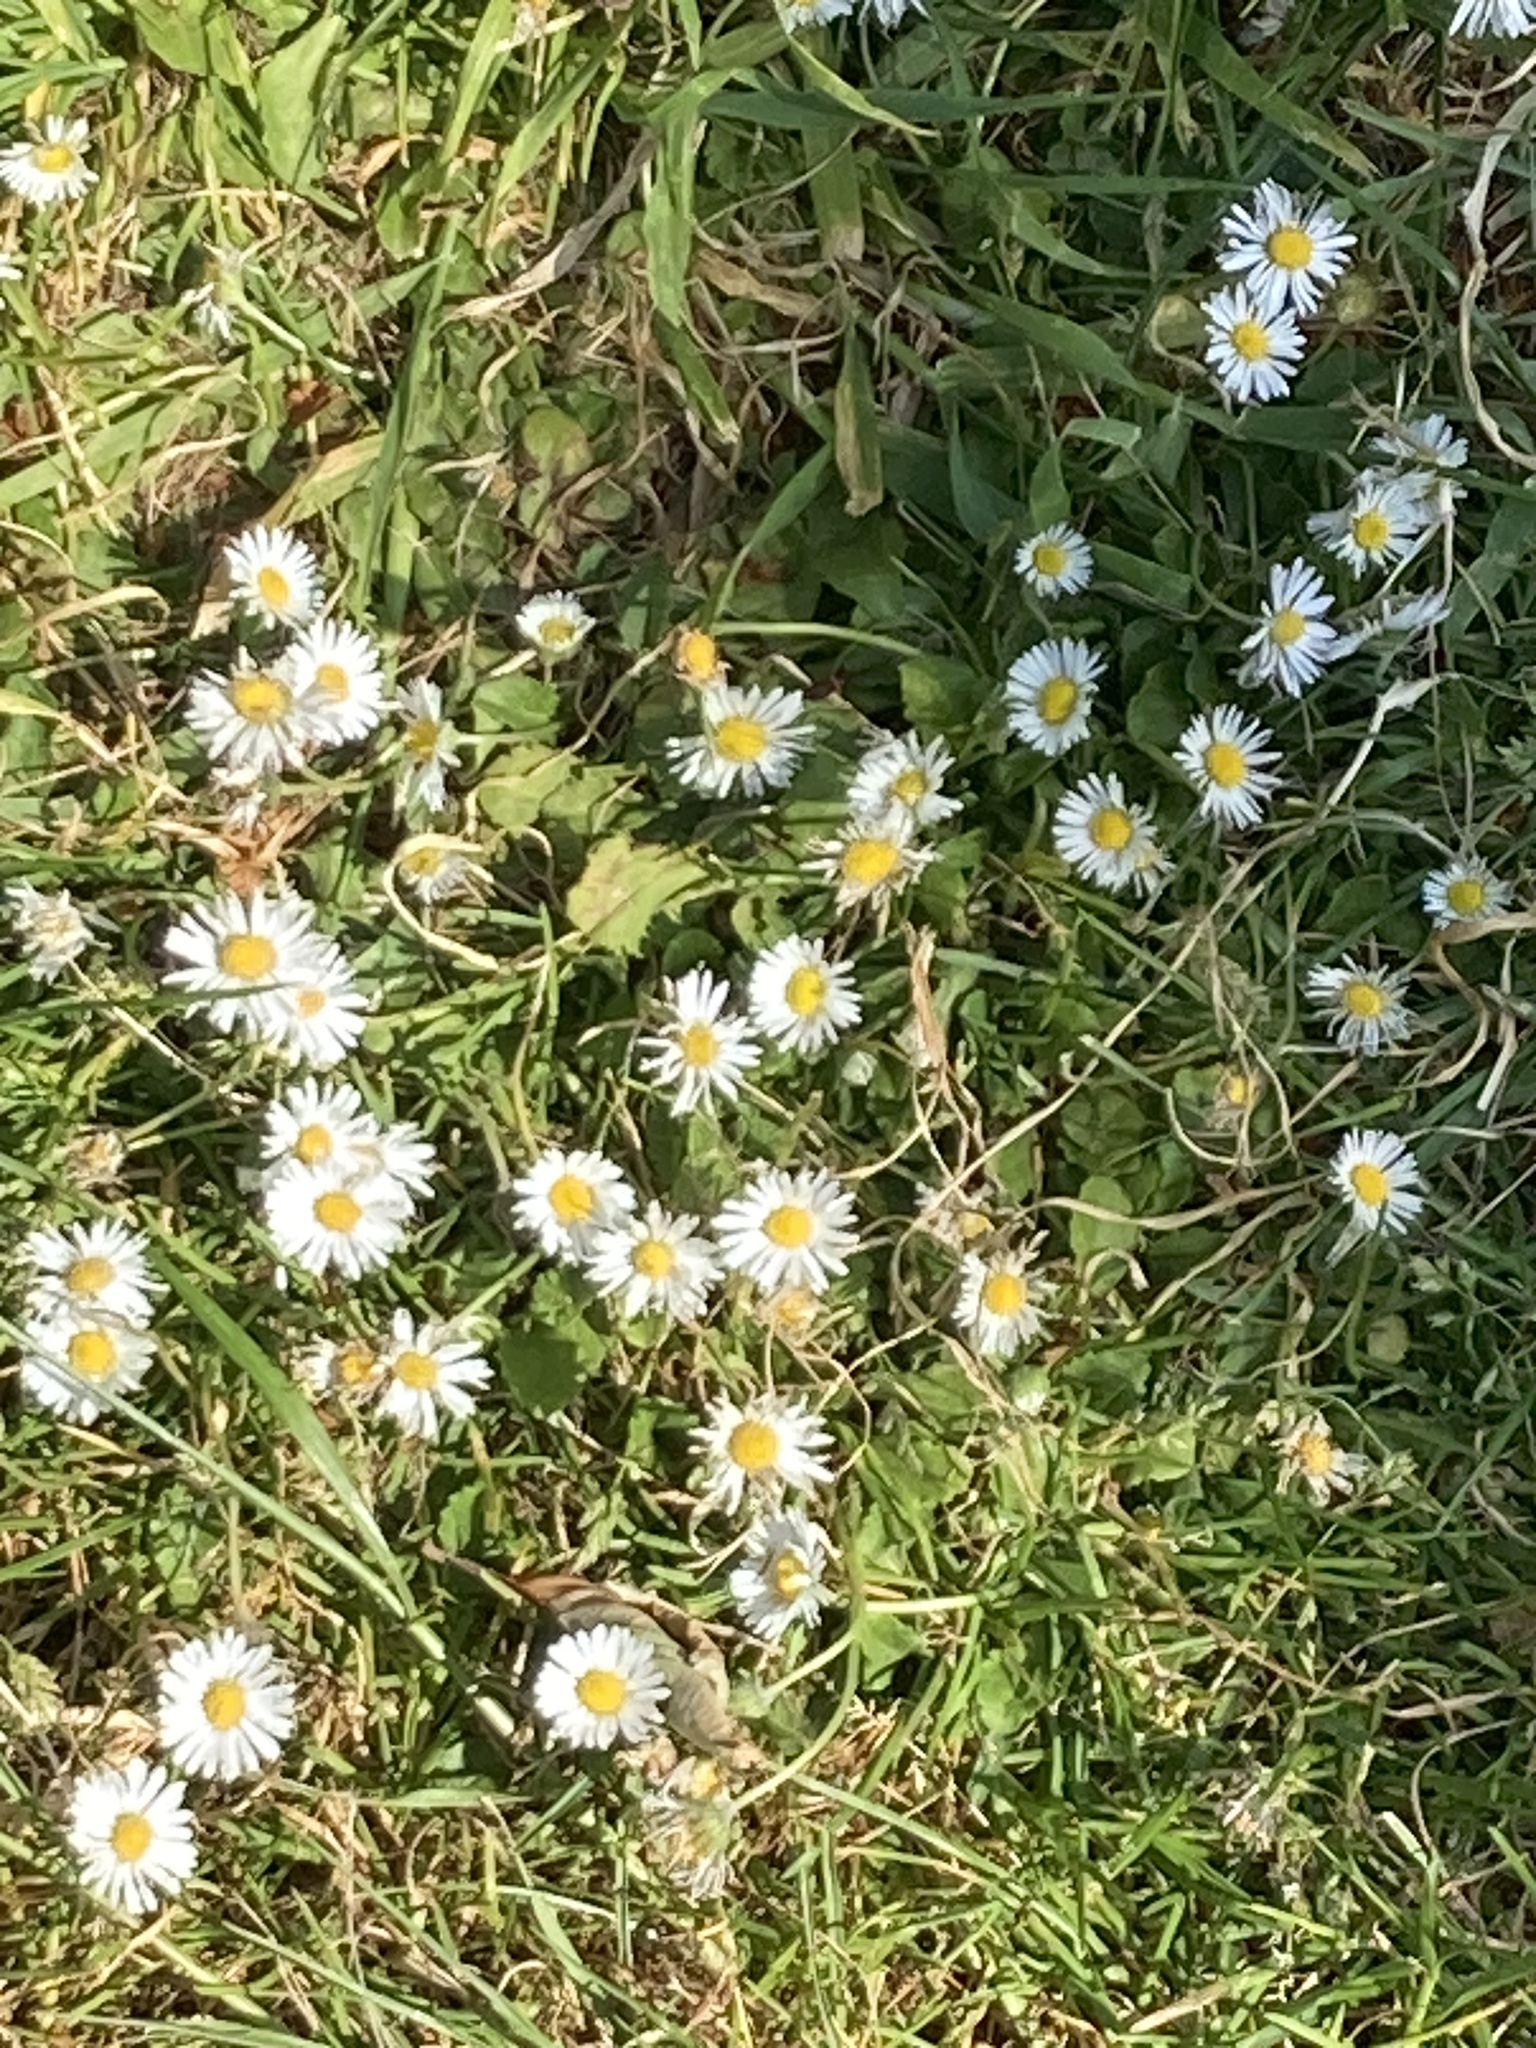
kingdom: Plantae
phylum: Tracheophyta
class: Magnoliopsida
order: Asterales
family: Asteraceae
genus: Bellis
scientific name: Bellis perennis
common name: Lawndaisy
